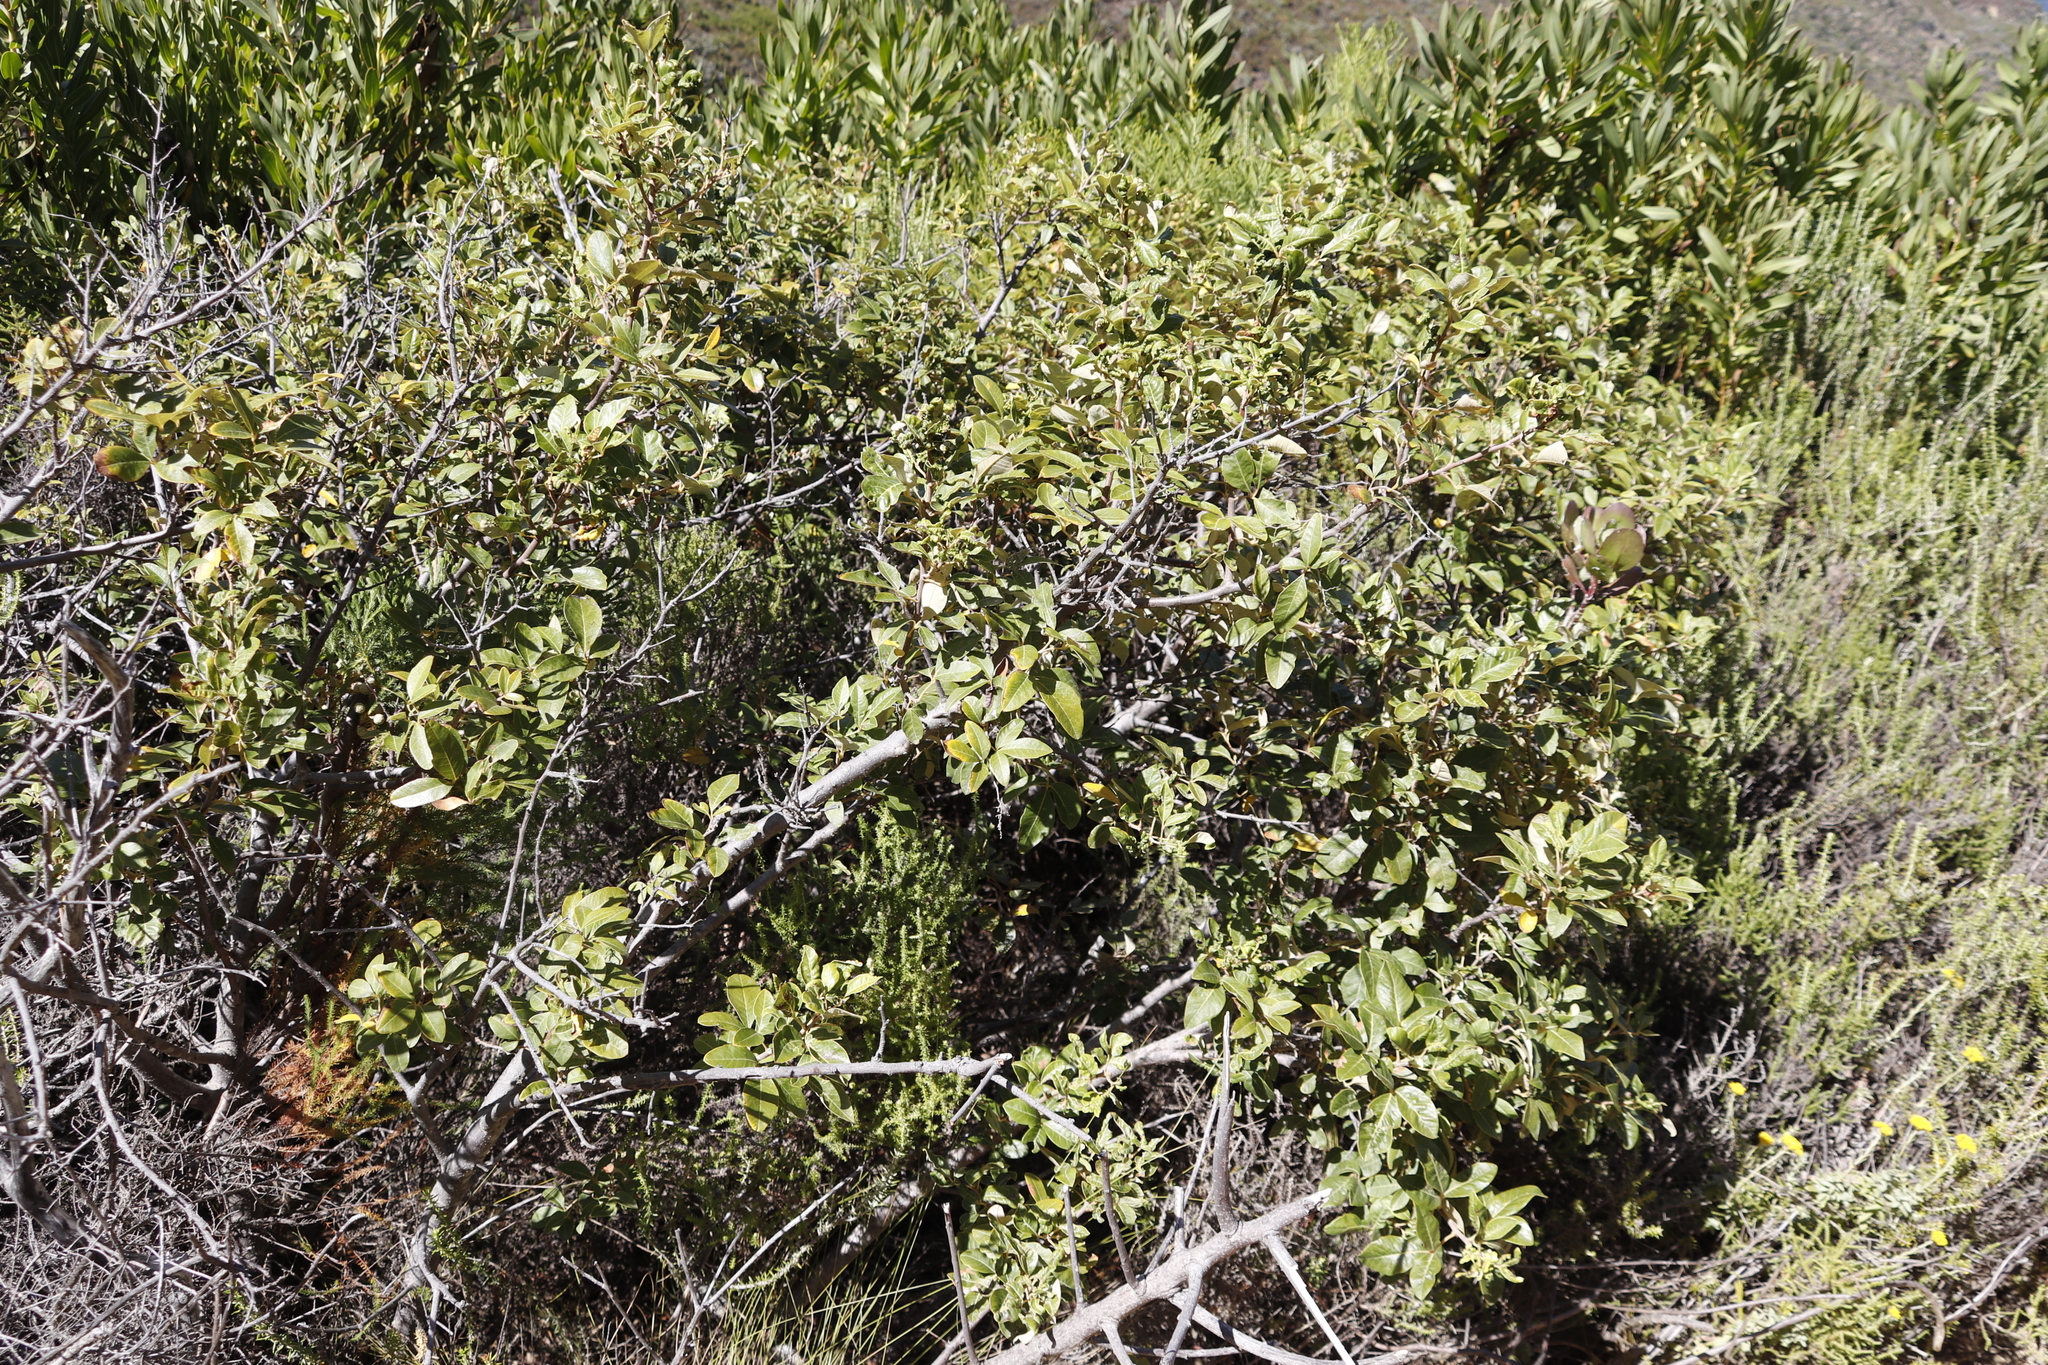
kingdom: Plantae
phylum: Tracheophyta
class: Magnoliopsida
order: Sapindales
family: Anacardiaceae
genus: Searsia
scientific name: Searsia tomentosa
